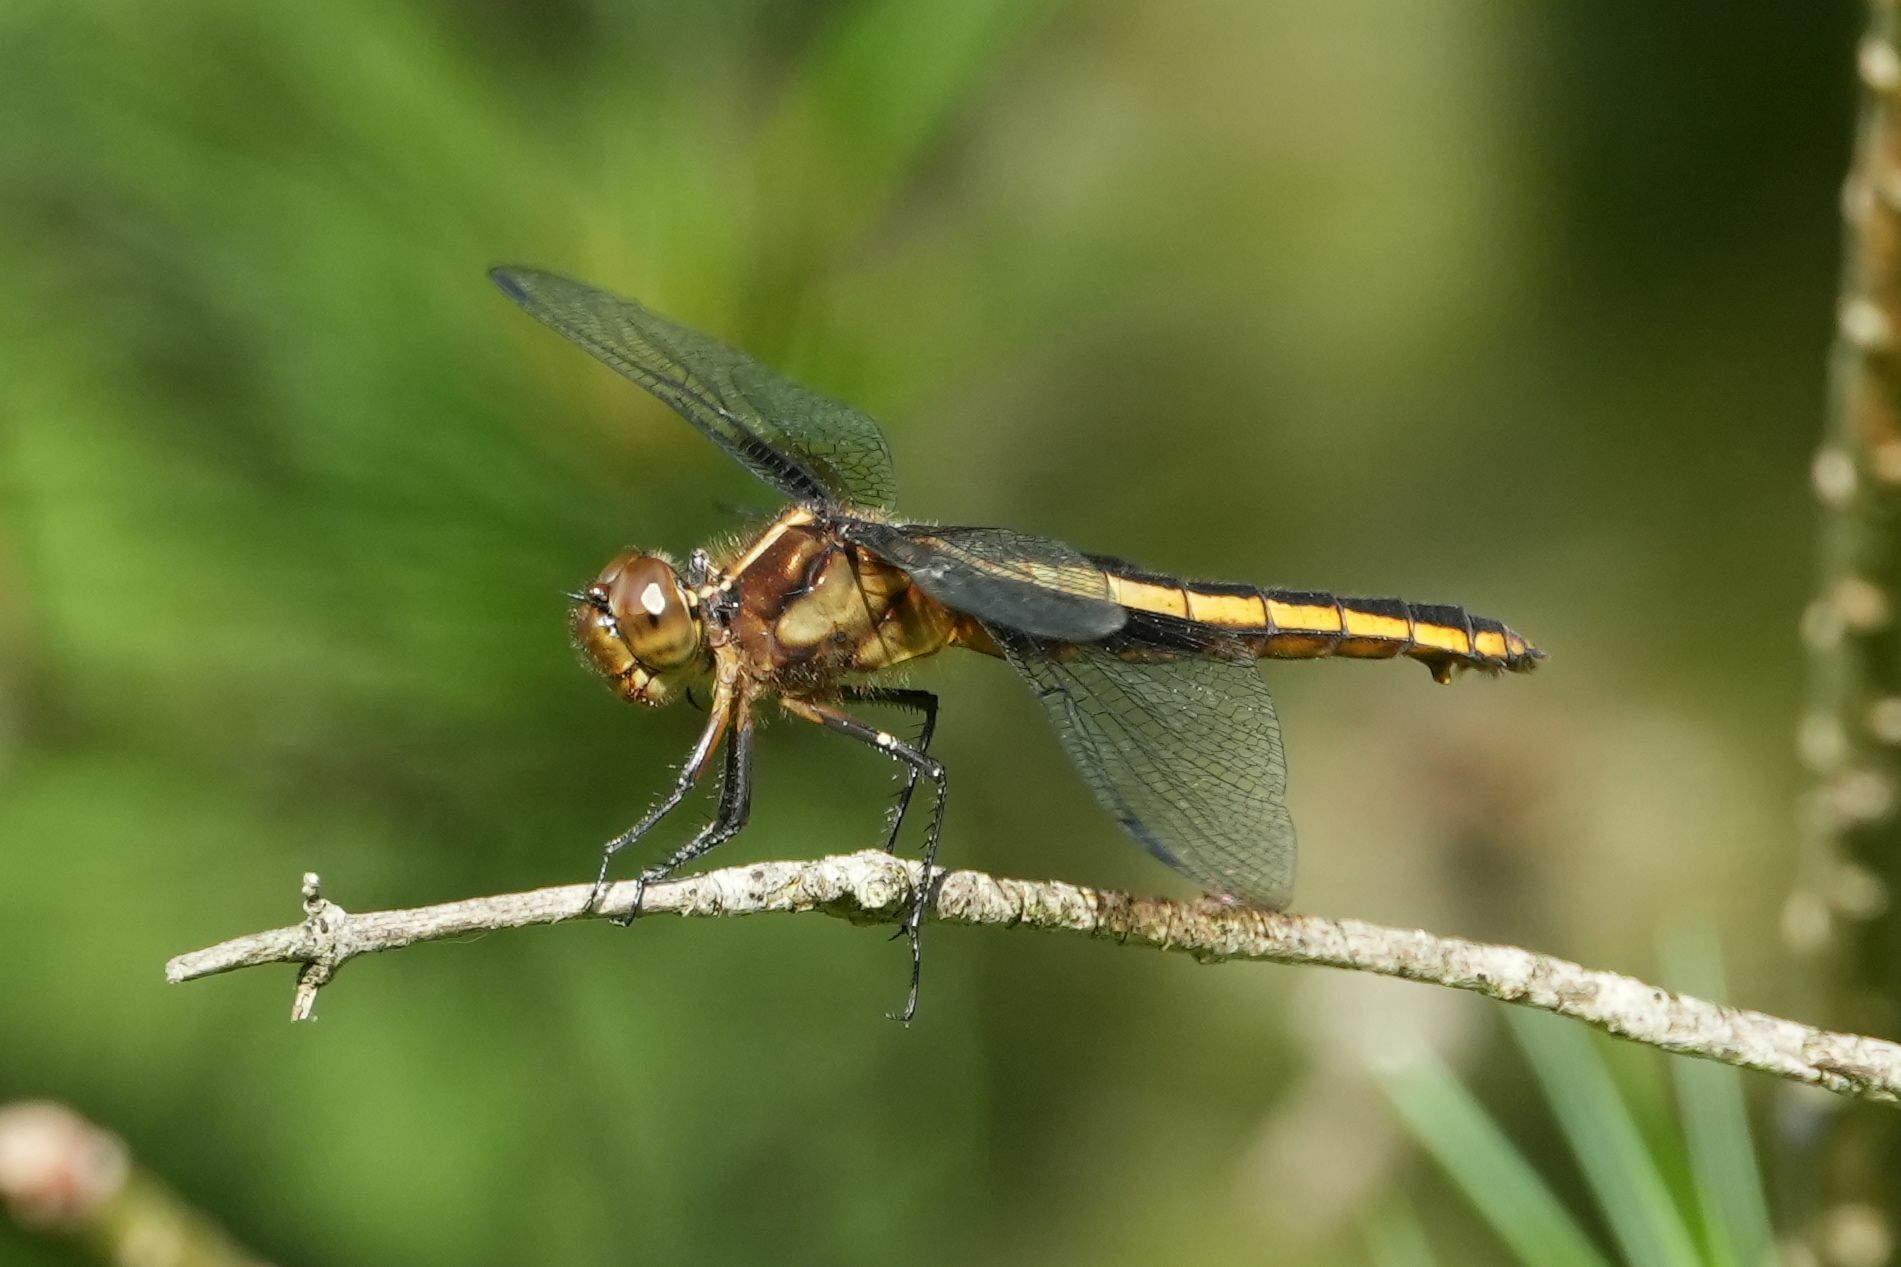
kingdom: Animalia
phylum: Arthropoda
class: Insecta
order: Odonata
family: Libellulidae
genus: Libellula
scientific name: Libellula luctuosa
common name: Widow skimmer
